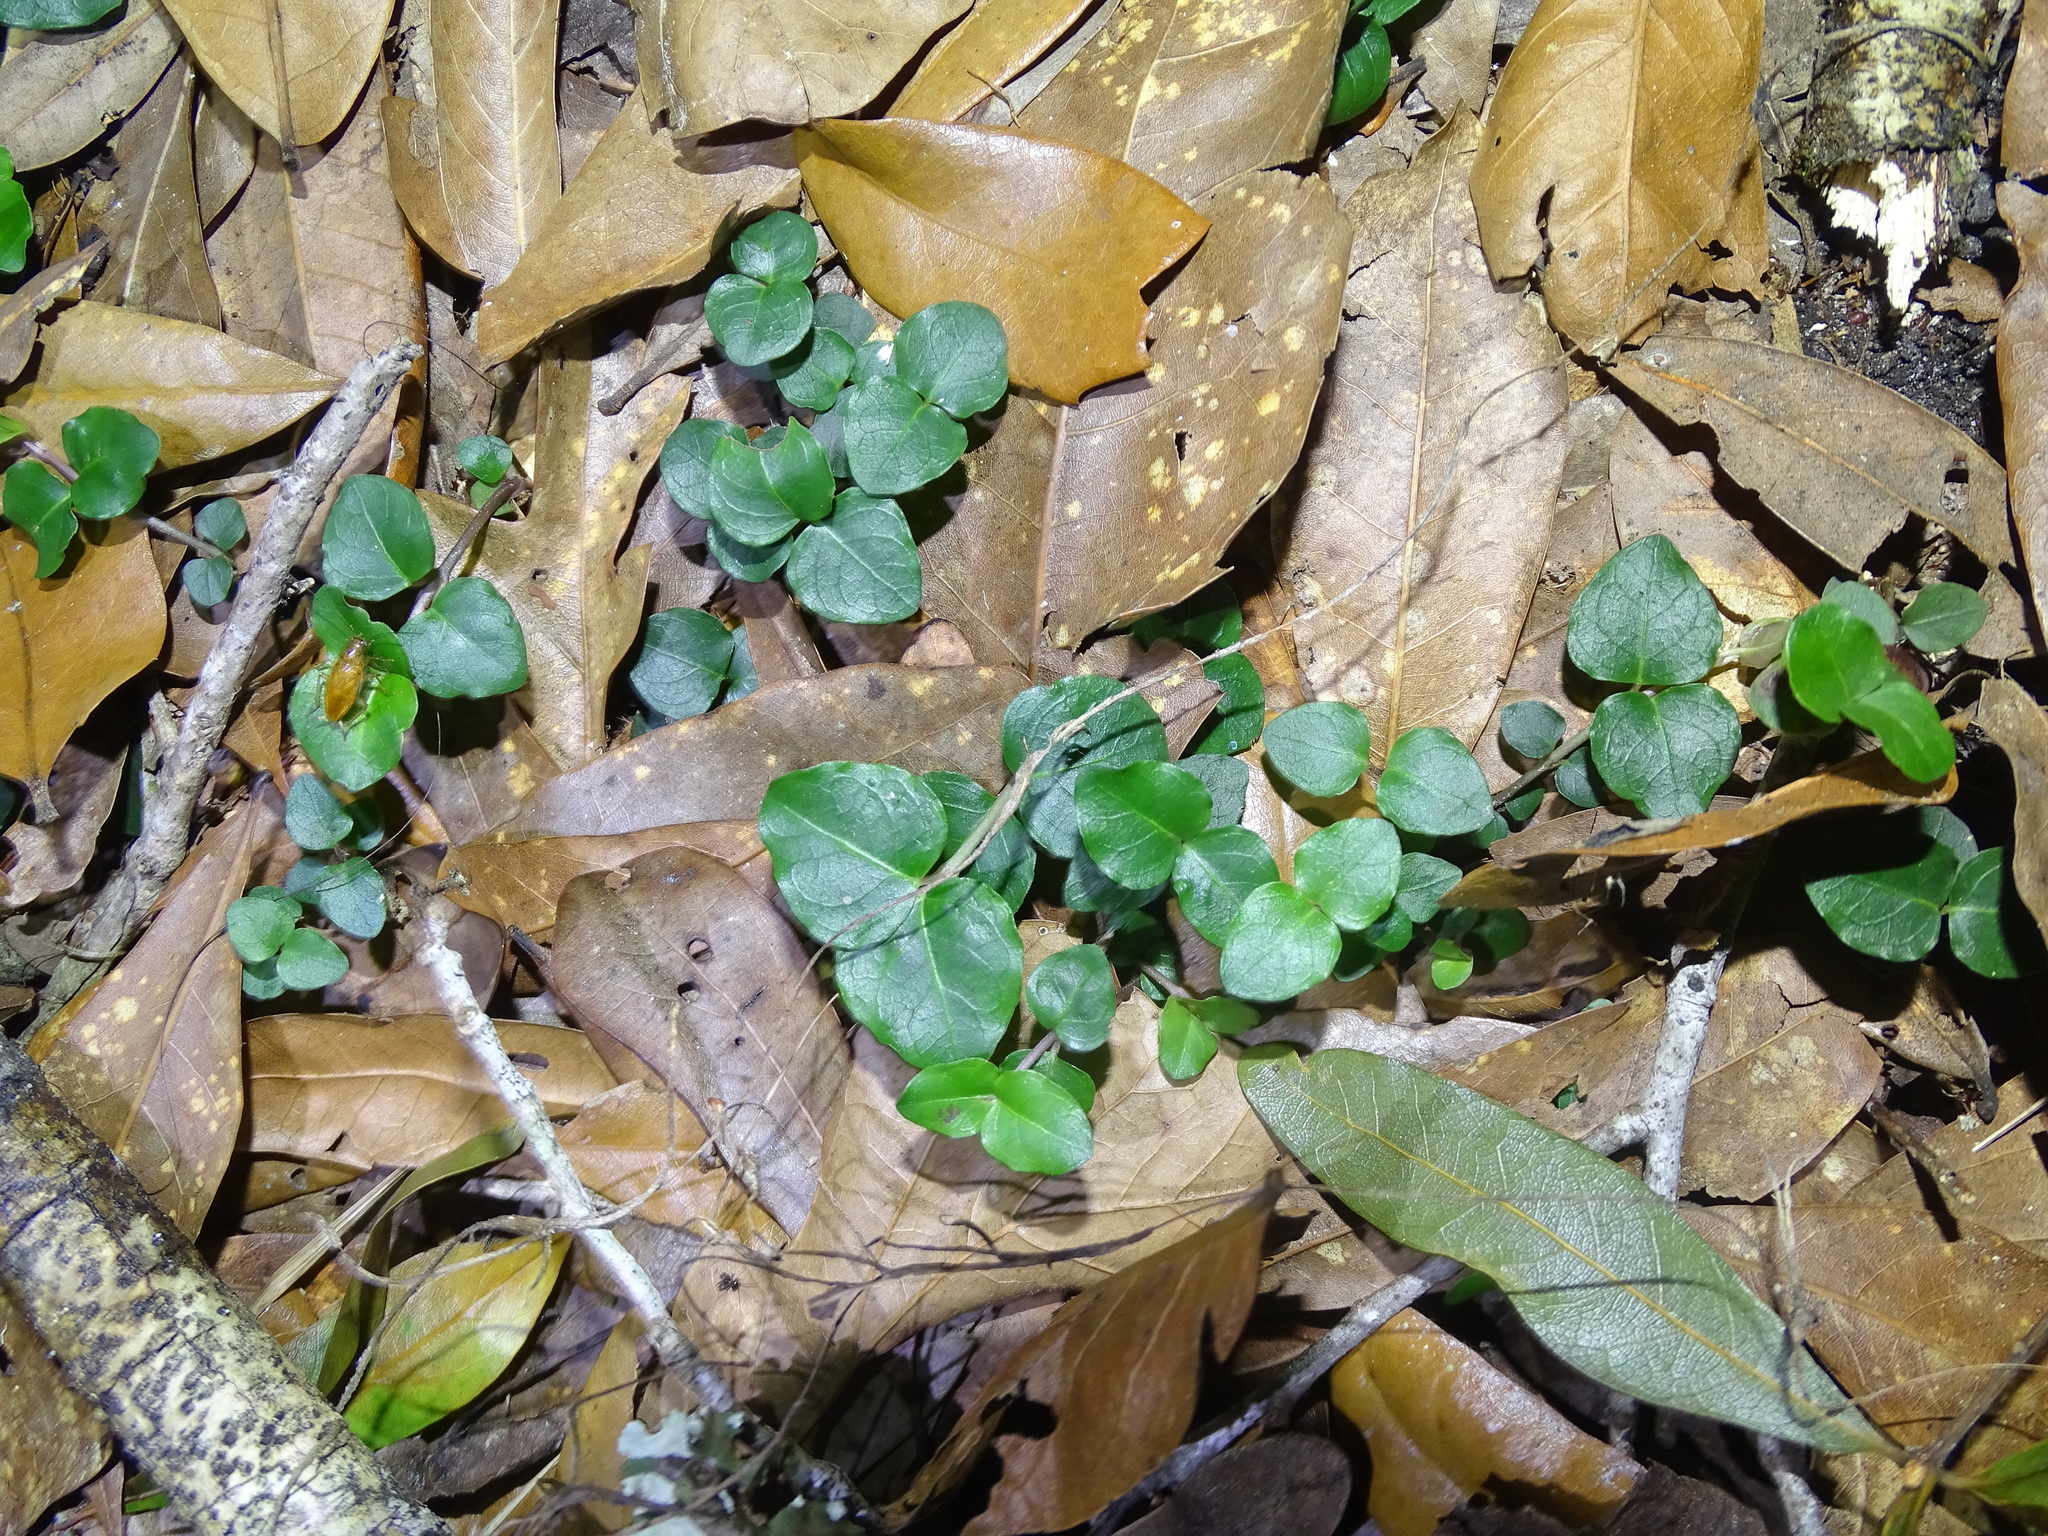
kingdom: Plantae
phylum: Tracheophyta
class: Magnoliopsida
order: Gentianales
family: Rubiaceae
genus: Mitchella
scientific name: Mitchella repens
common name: Partridge-berry
